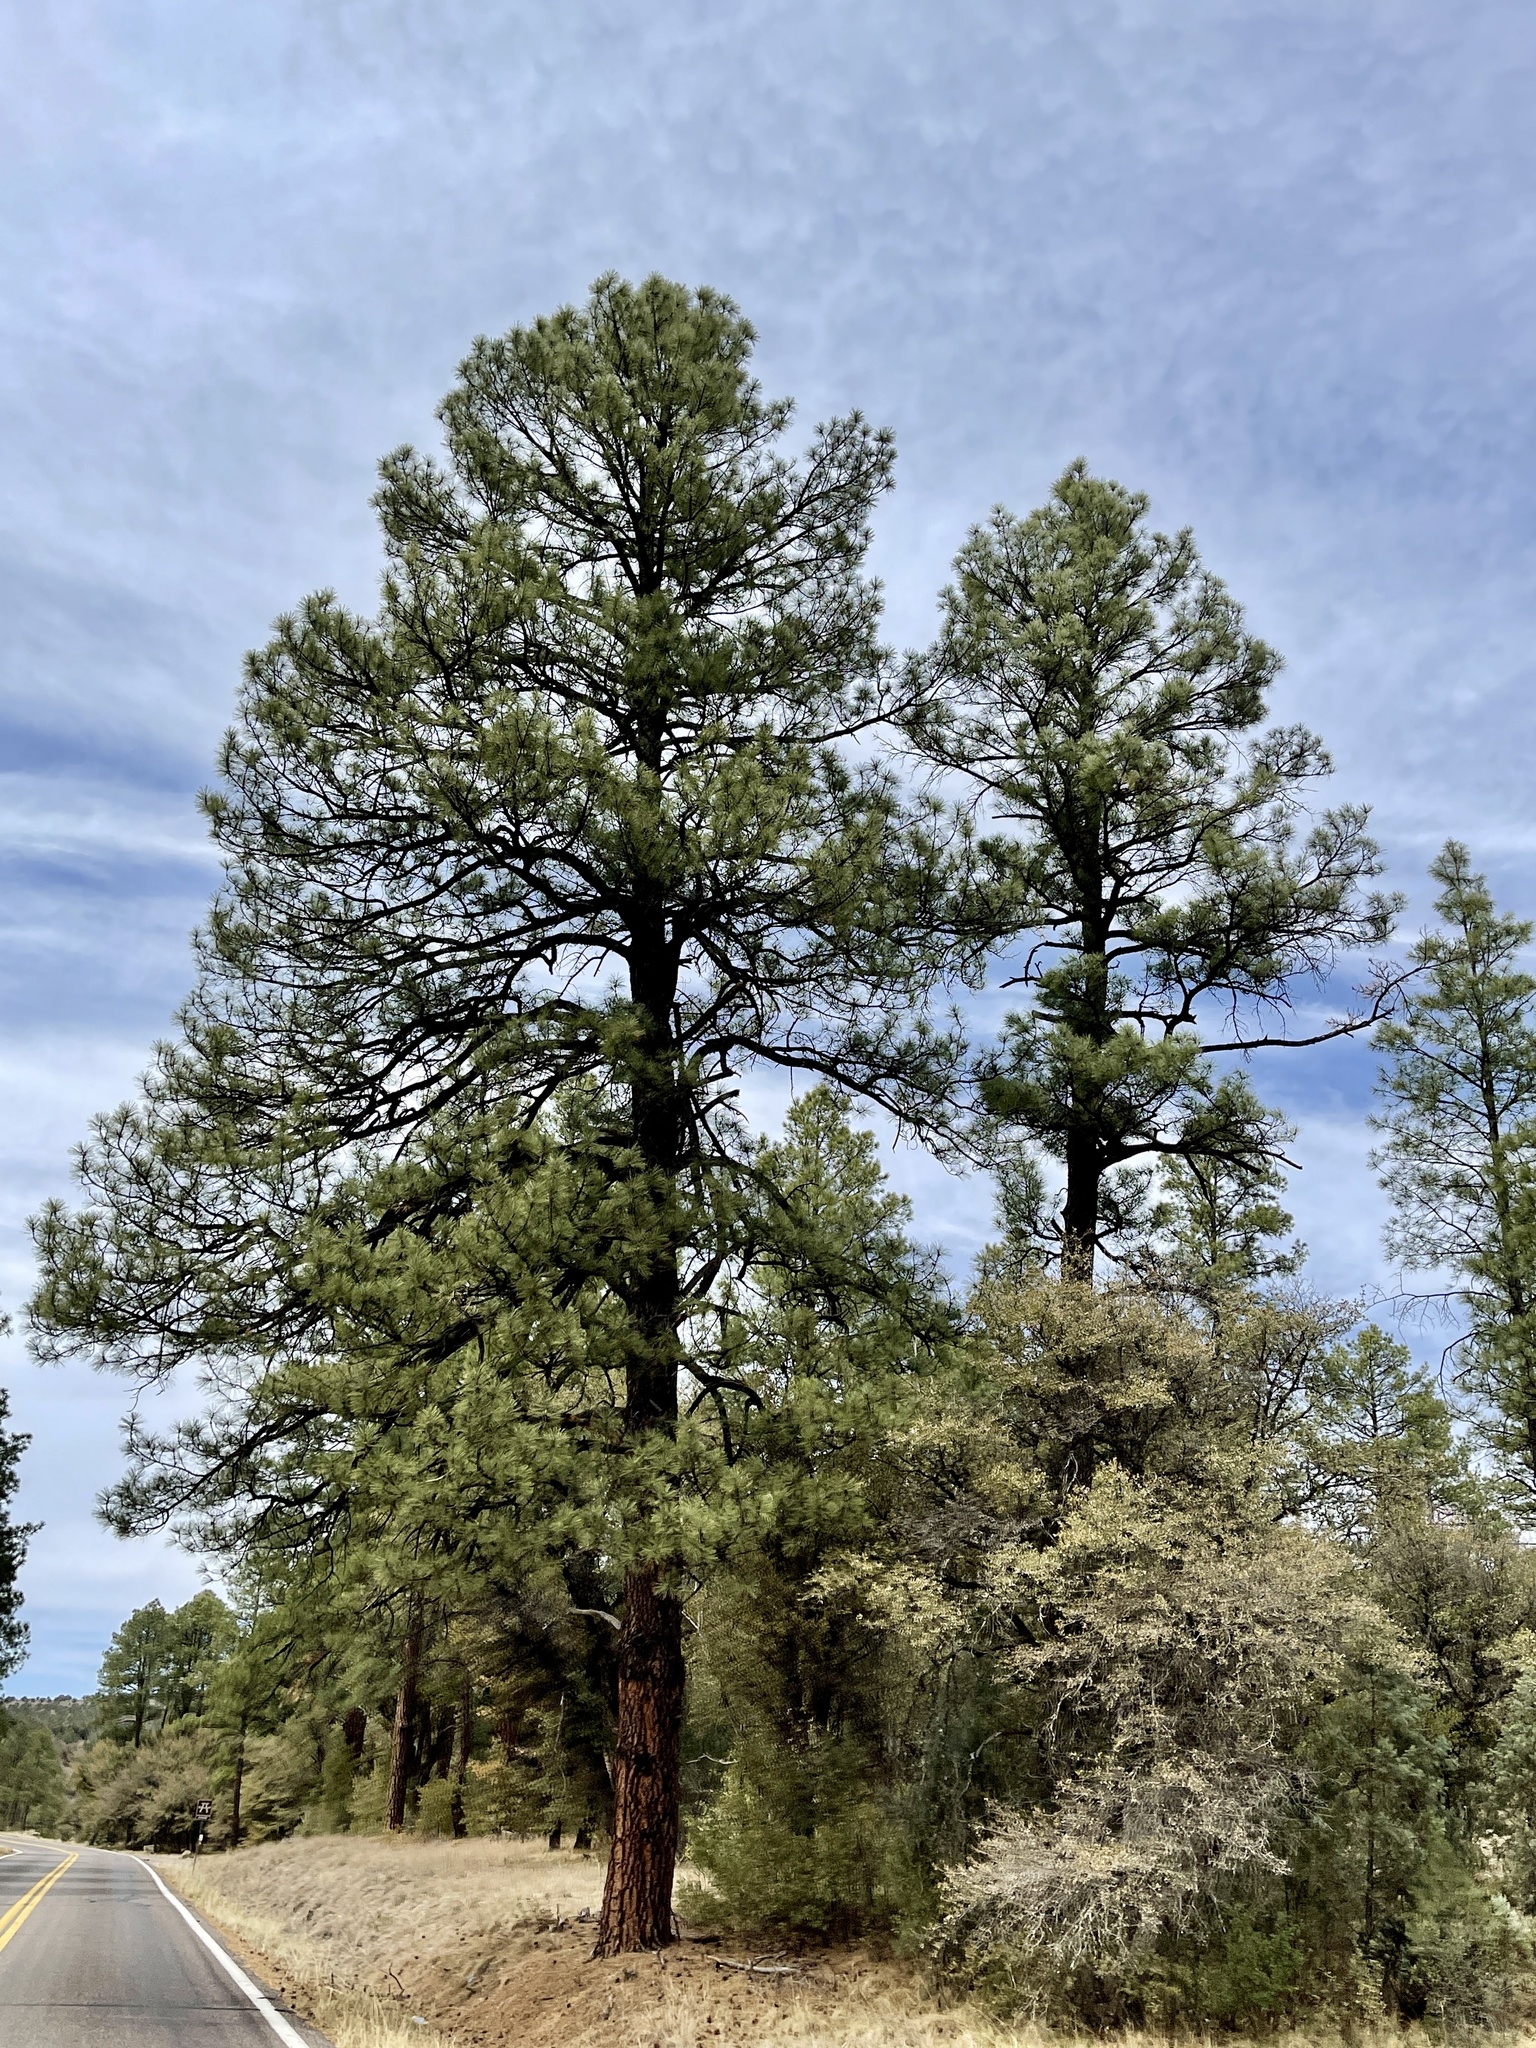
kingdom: Plantae
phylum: Tracheophyta
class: Pinopsida
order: Pinales
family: Pinaceae
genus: Pinus
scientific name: Pinus ponderosa
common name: Western yellow-pine
